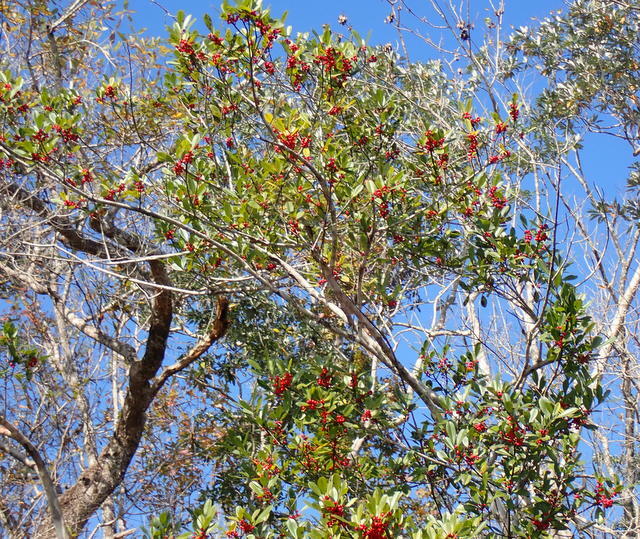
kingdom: Plantae
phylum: Tracheophyta
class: Magnoliopsida
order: Aquifoliales
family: Aquifoliaceae
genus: Ilex
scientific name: Ilex cassine
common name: Dahoon
